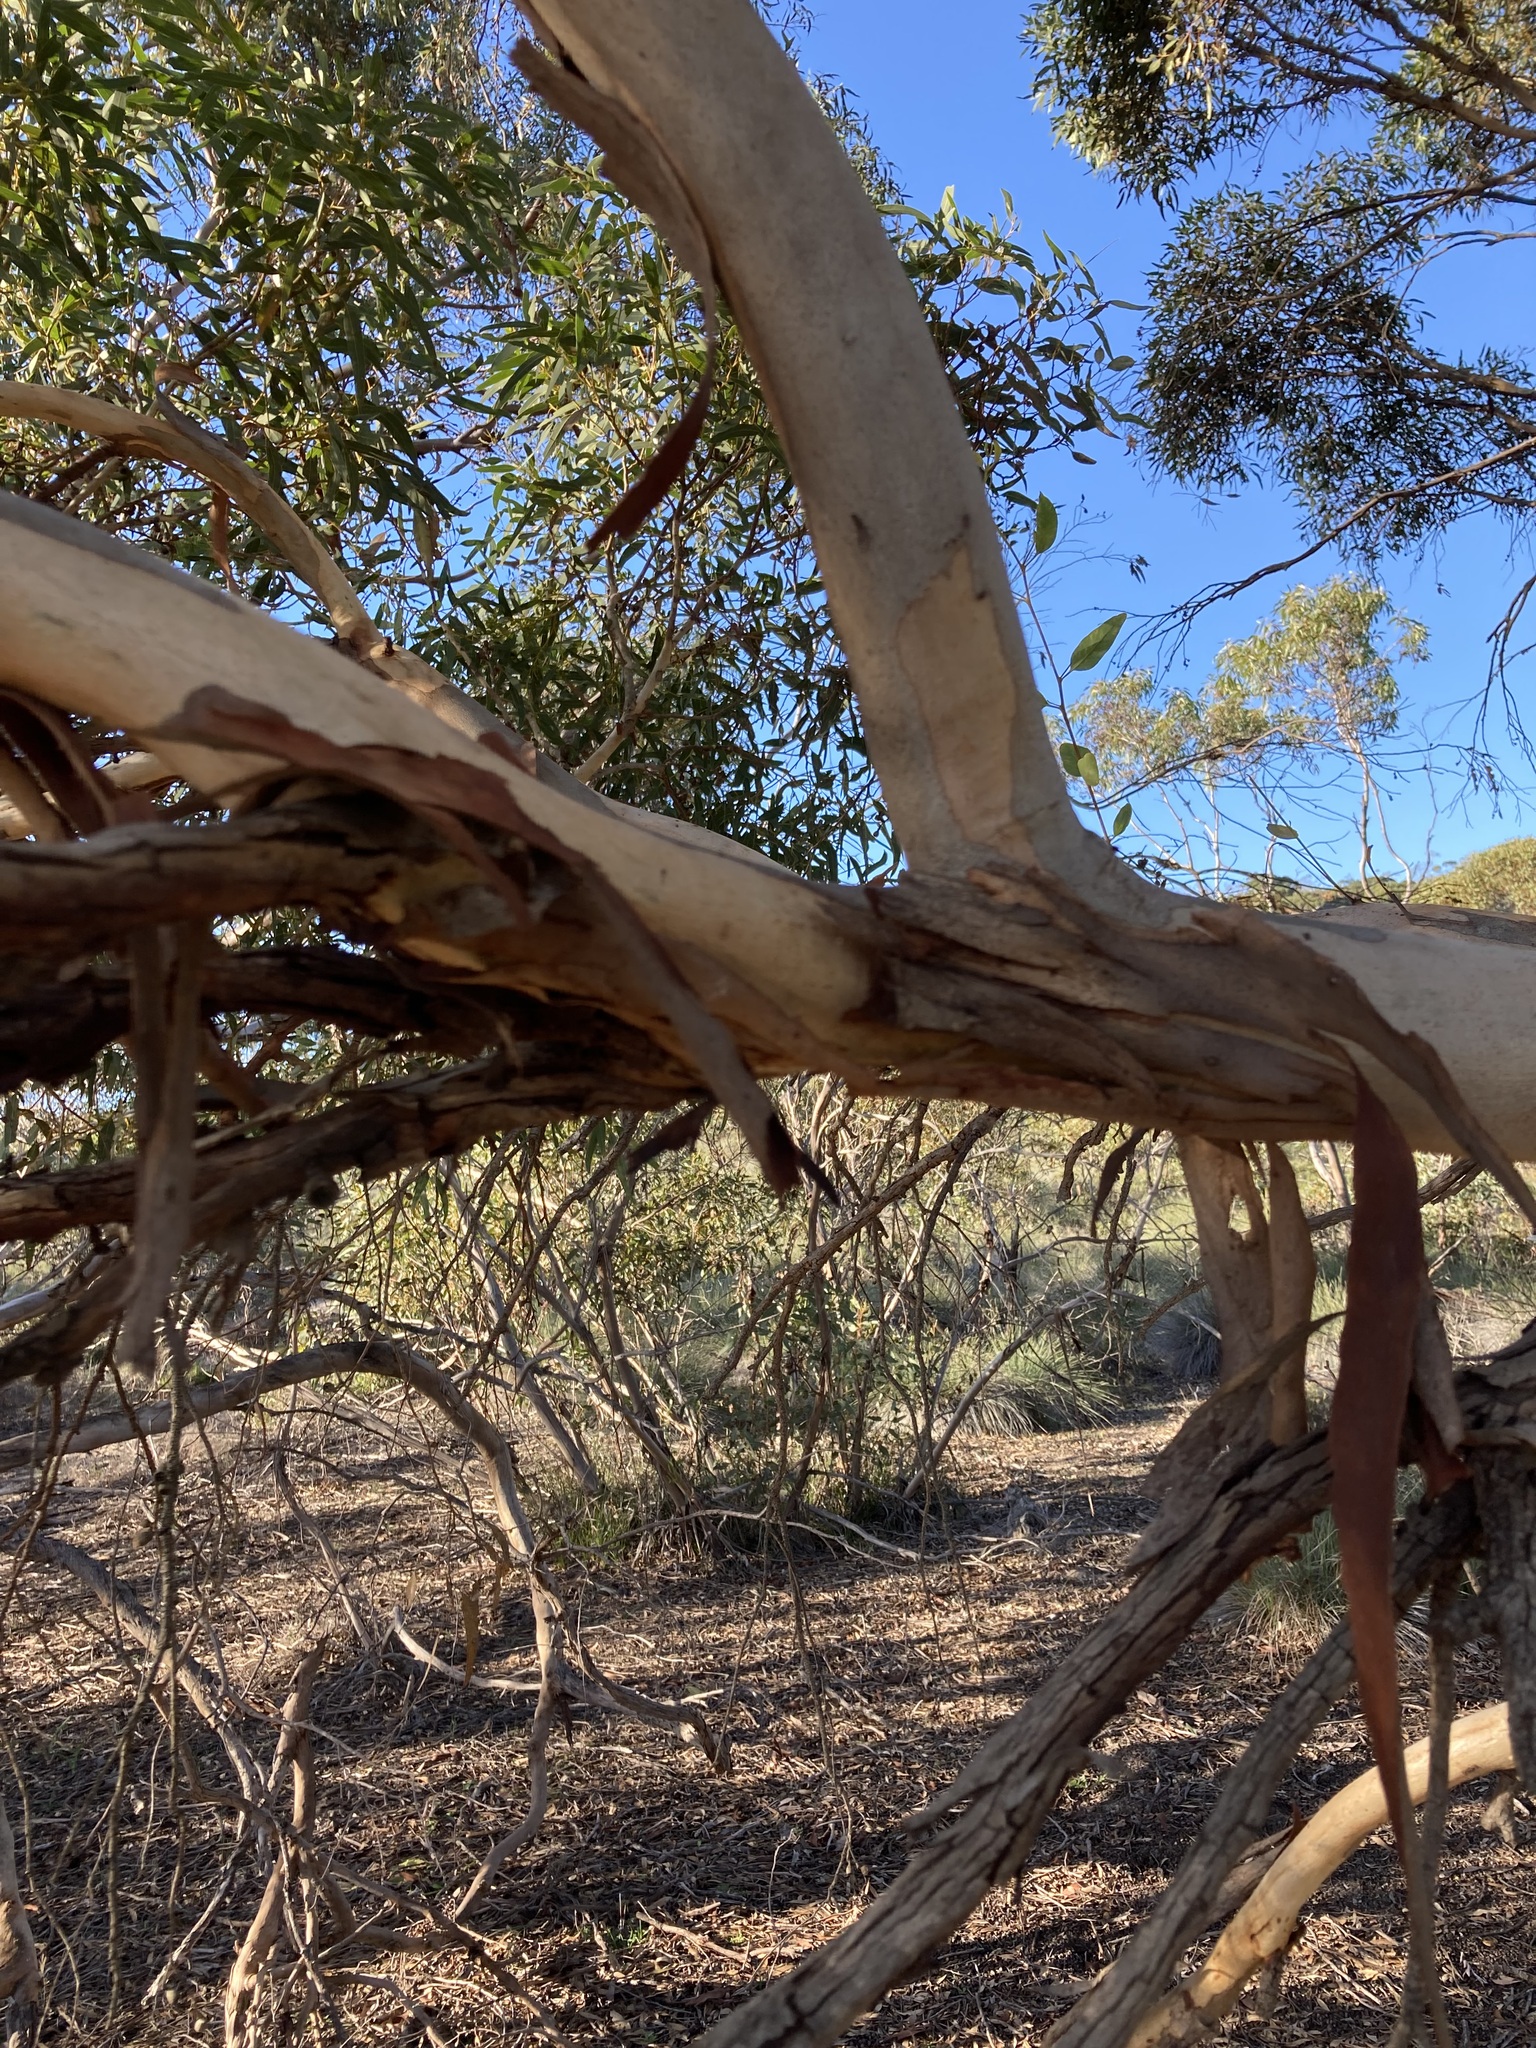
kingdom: Plantae
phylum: Tracheophyta
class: Magnoliopsida
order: Myrtales
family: Myrtaceae
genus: Eucalyptus
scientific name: Eucalyptus leprophloia
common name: Scaly-butt mallee
